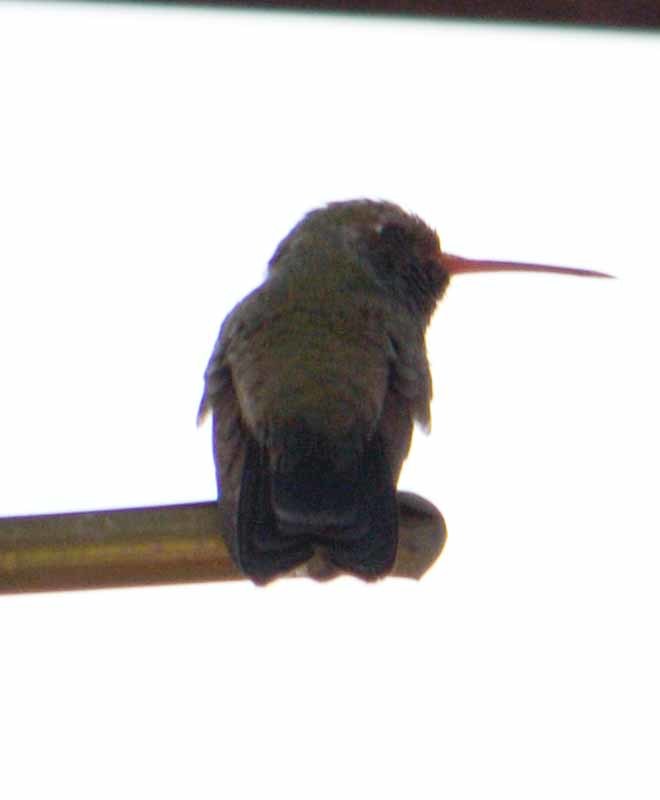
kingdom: Animalia
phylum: Chordata
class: Aves
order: Apodiformes
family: Trochilidae
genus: Cynanthus
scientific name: Cynanthus latirostris
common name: Broad-billed hummingbird
